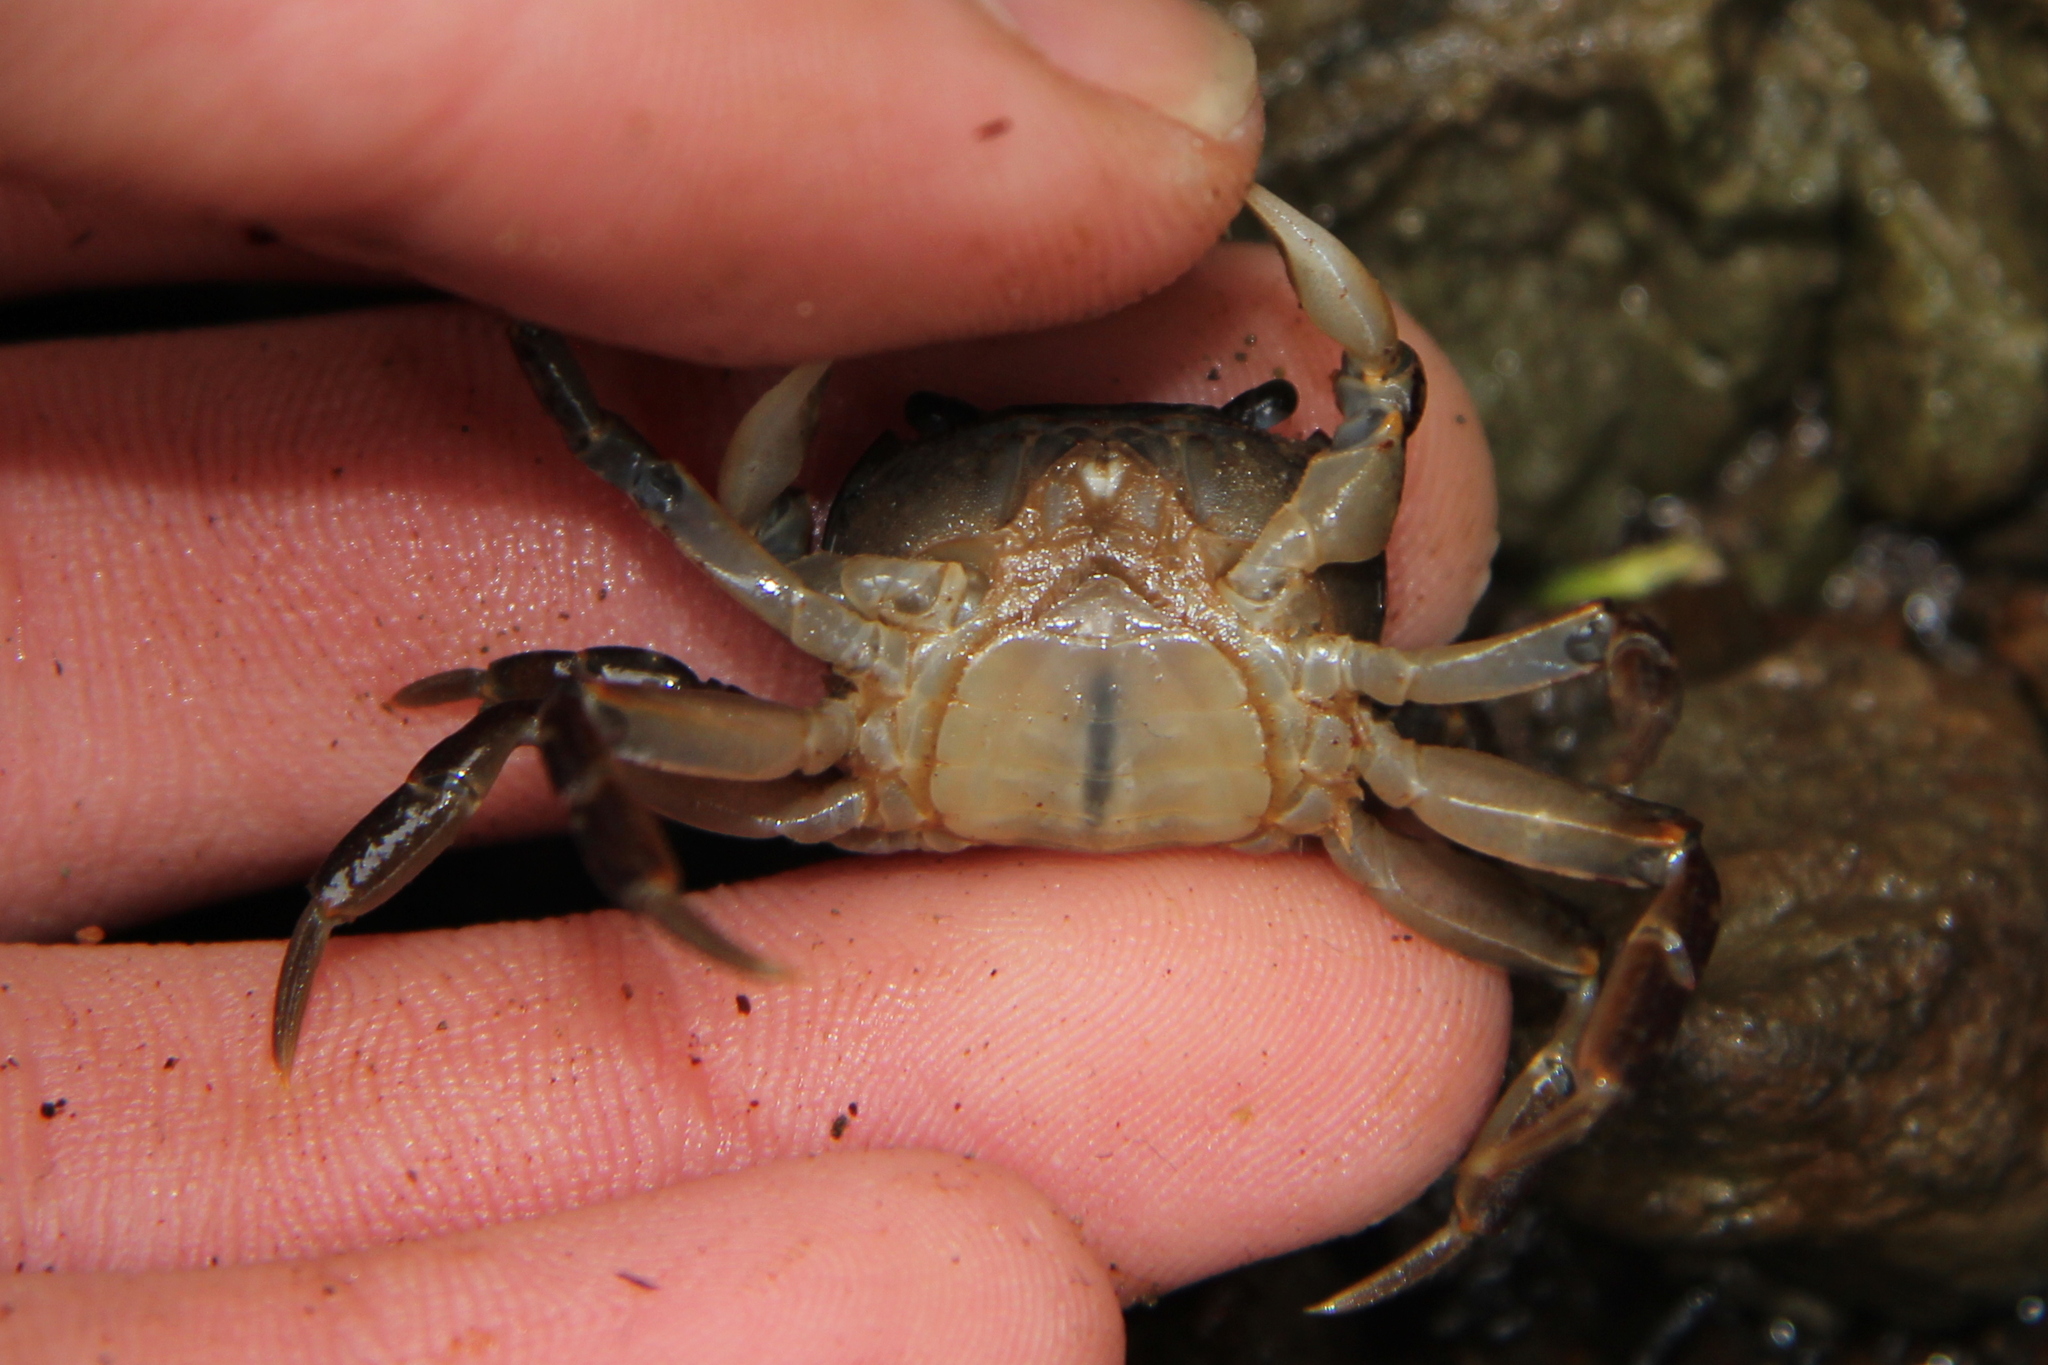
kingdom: Animalia
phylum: Arthropoda
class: Malacostraca
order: Decapoda
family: Varunidae
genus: Cyclograpsus
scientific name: Cyclograpsus lavauxi
